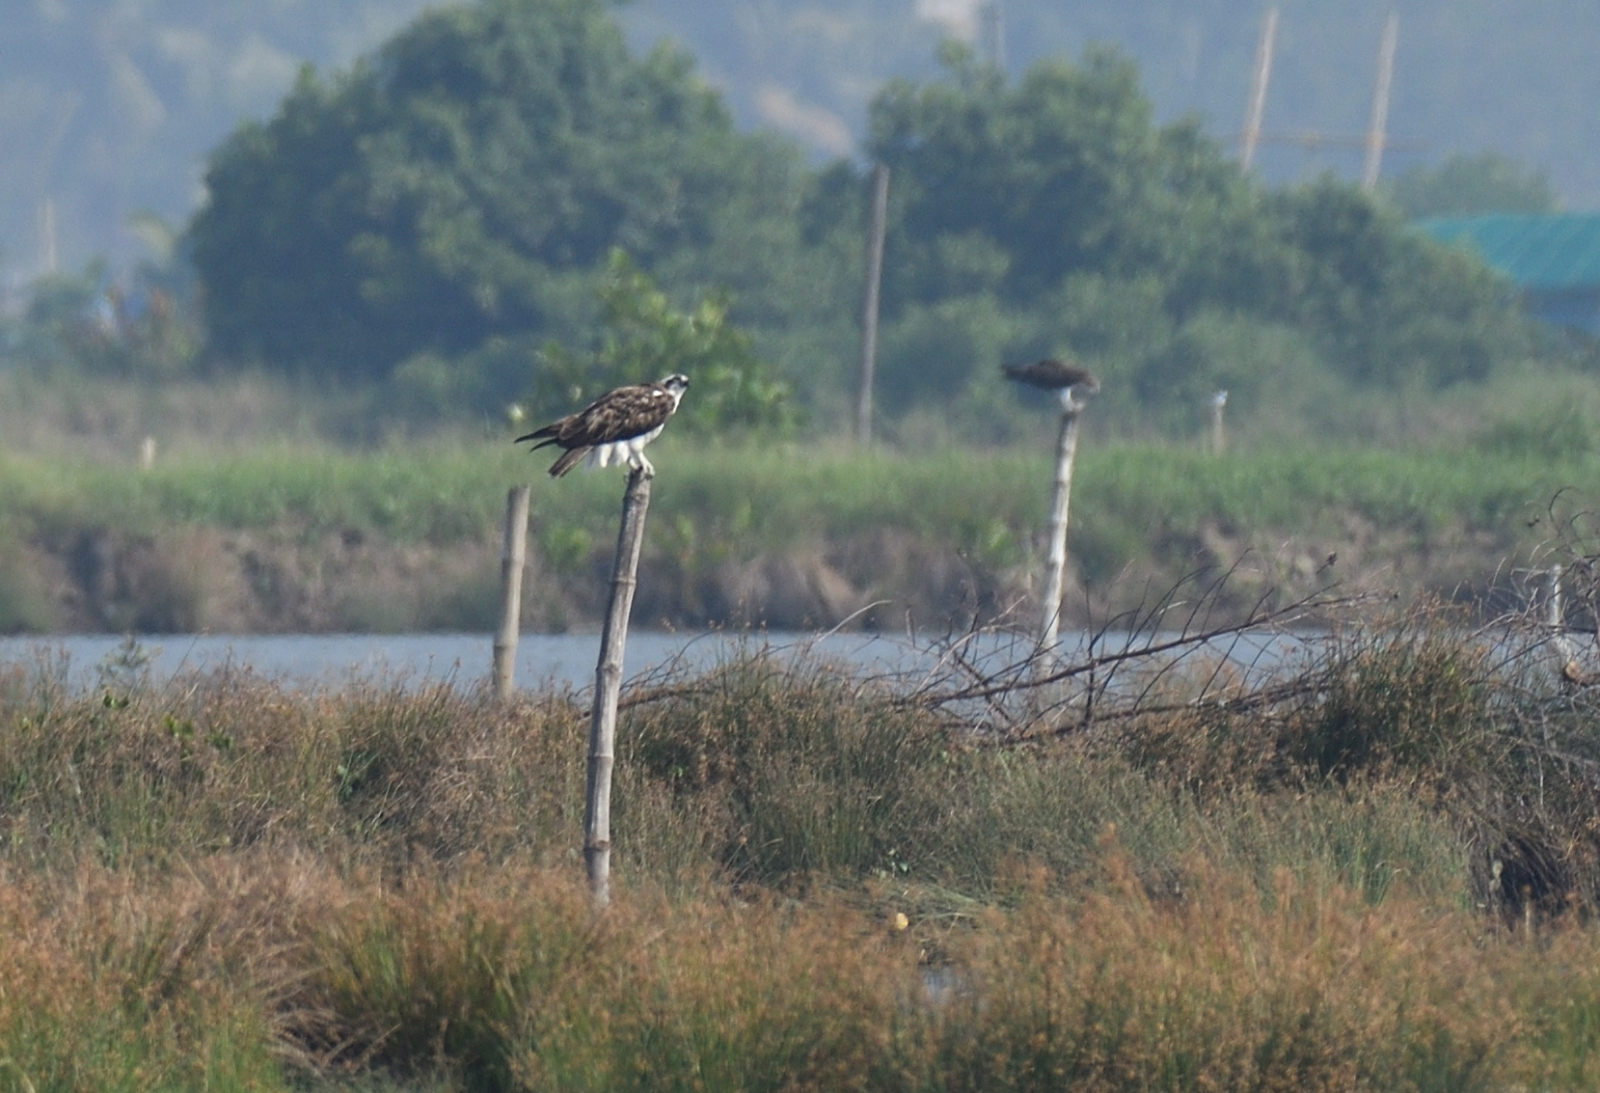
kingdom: Animalia
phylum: Chordata
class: Aves
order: Accipitriformes
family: Pandionidae
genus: Pandion
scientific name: Pandion haliaetus
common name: Osprey
